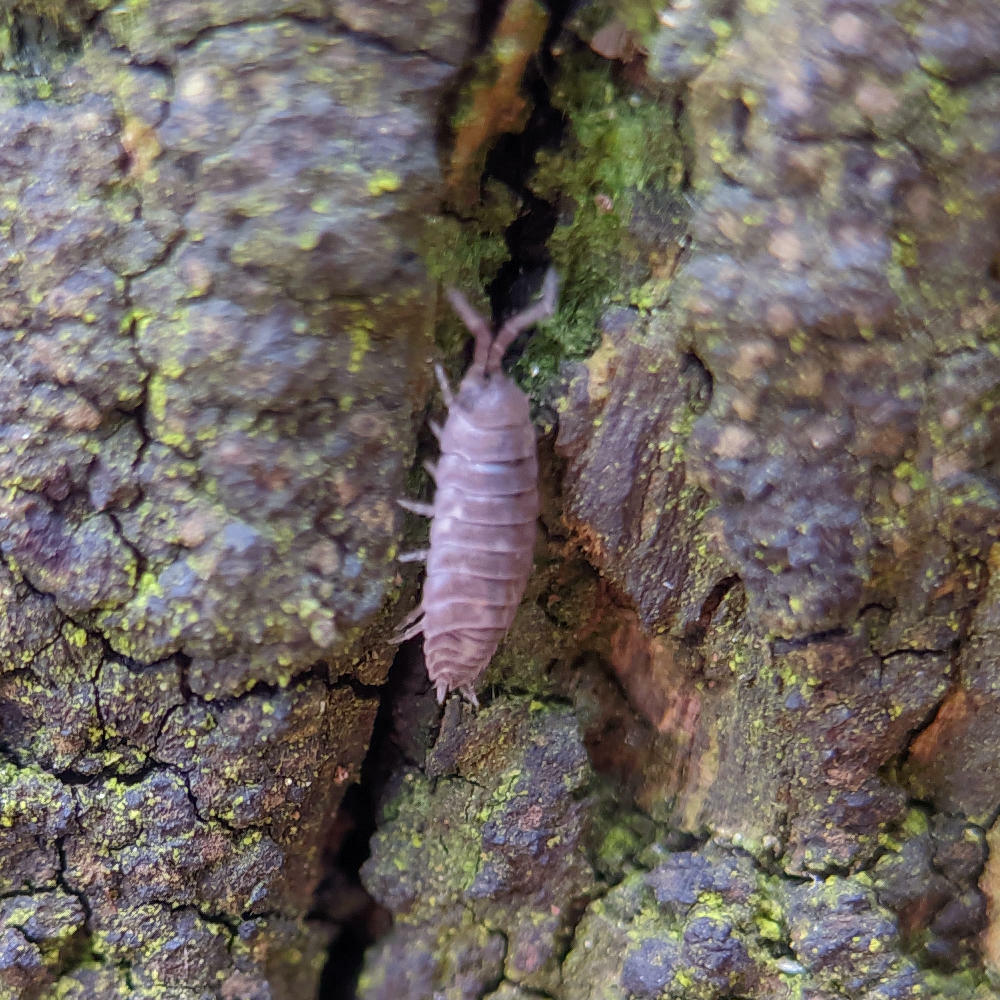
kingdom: Animalia
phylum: Arthropoda
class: Malacostraca
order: Isopoda
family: Porcellionidae
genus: Porcellio
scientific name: Porcellio scaber
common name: Common rough woodlouse
